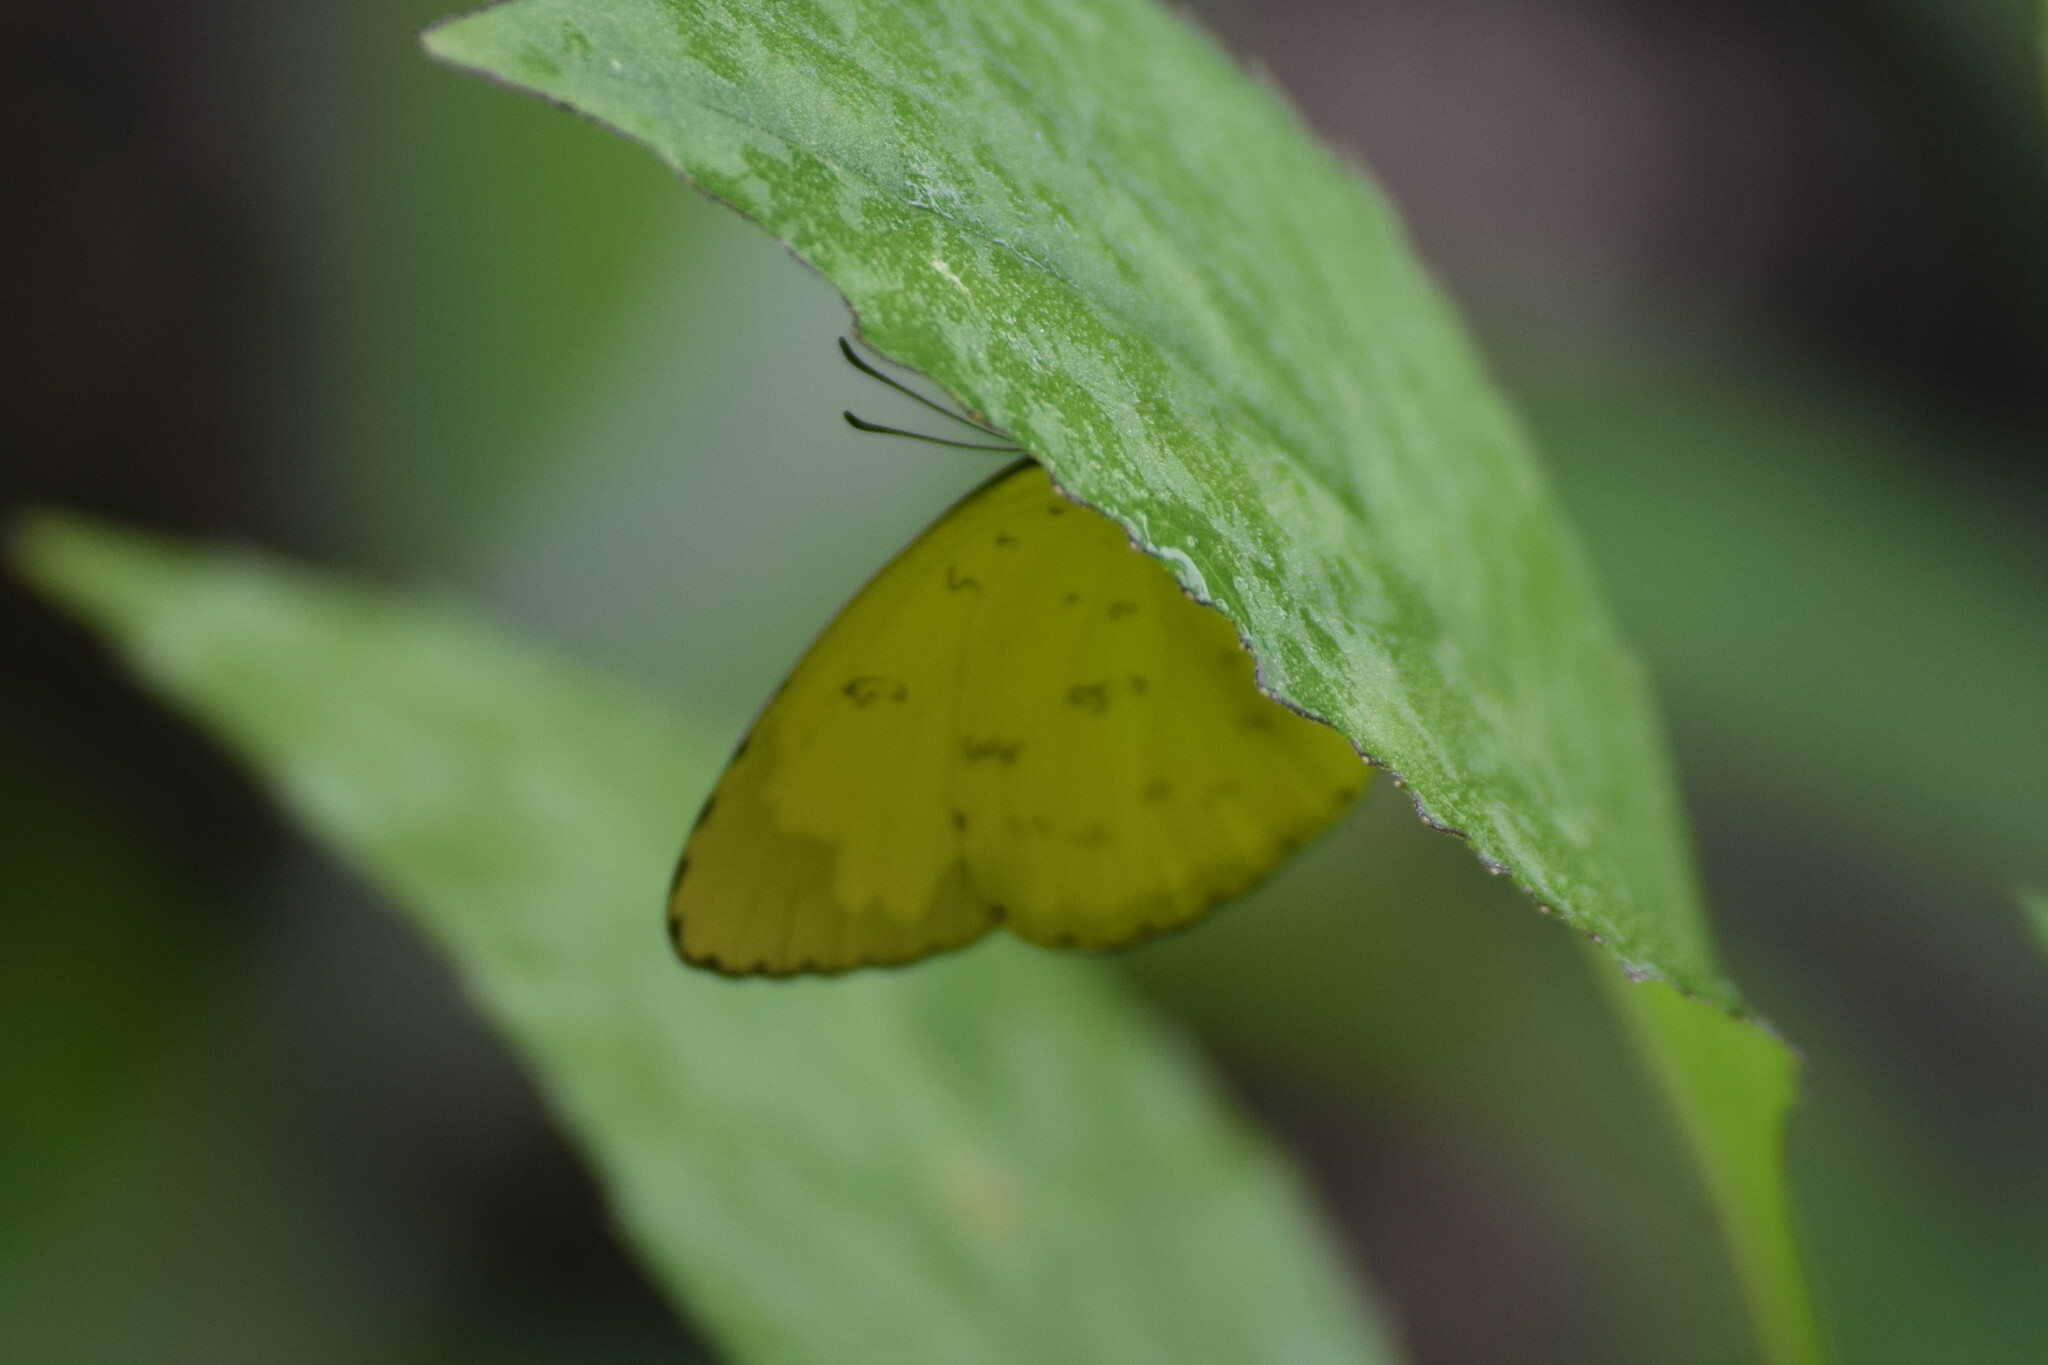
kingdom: Animalia
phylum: Arthropoda
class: Insecta
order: Lepidoptera
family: Pieridae
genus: Eurema
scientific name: Eurema blanda
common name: Three-spot grass yellow
